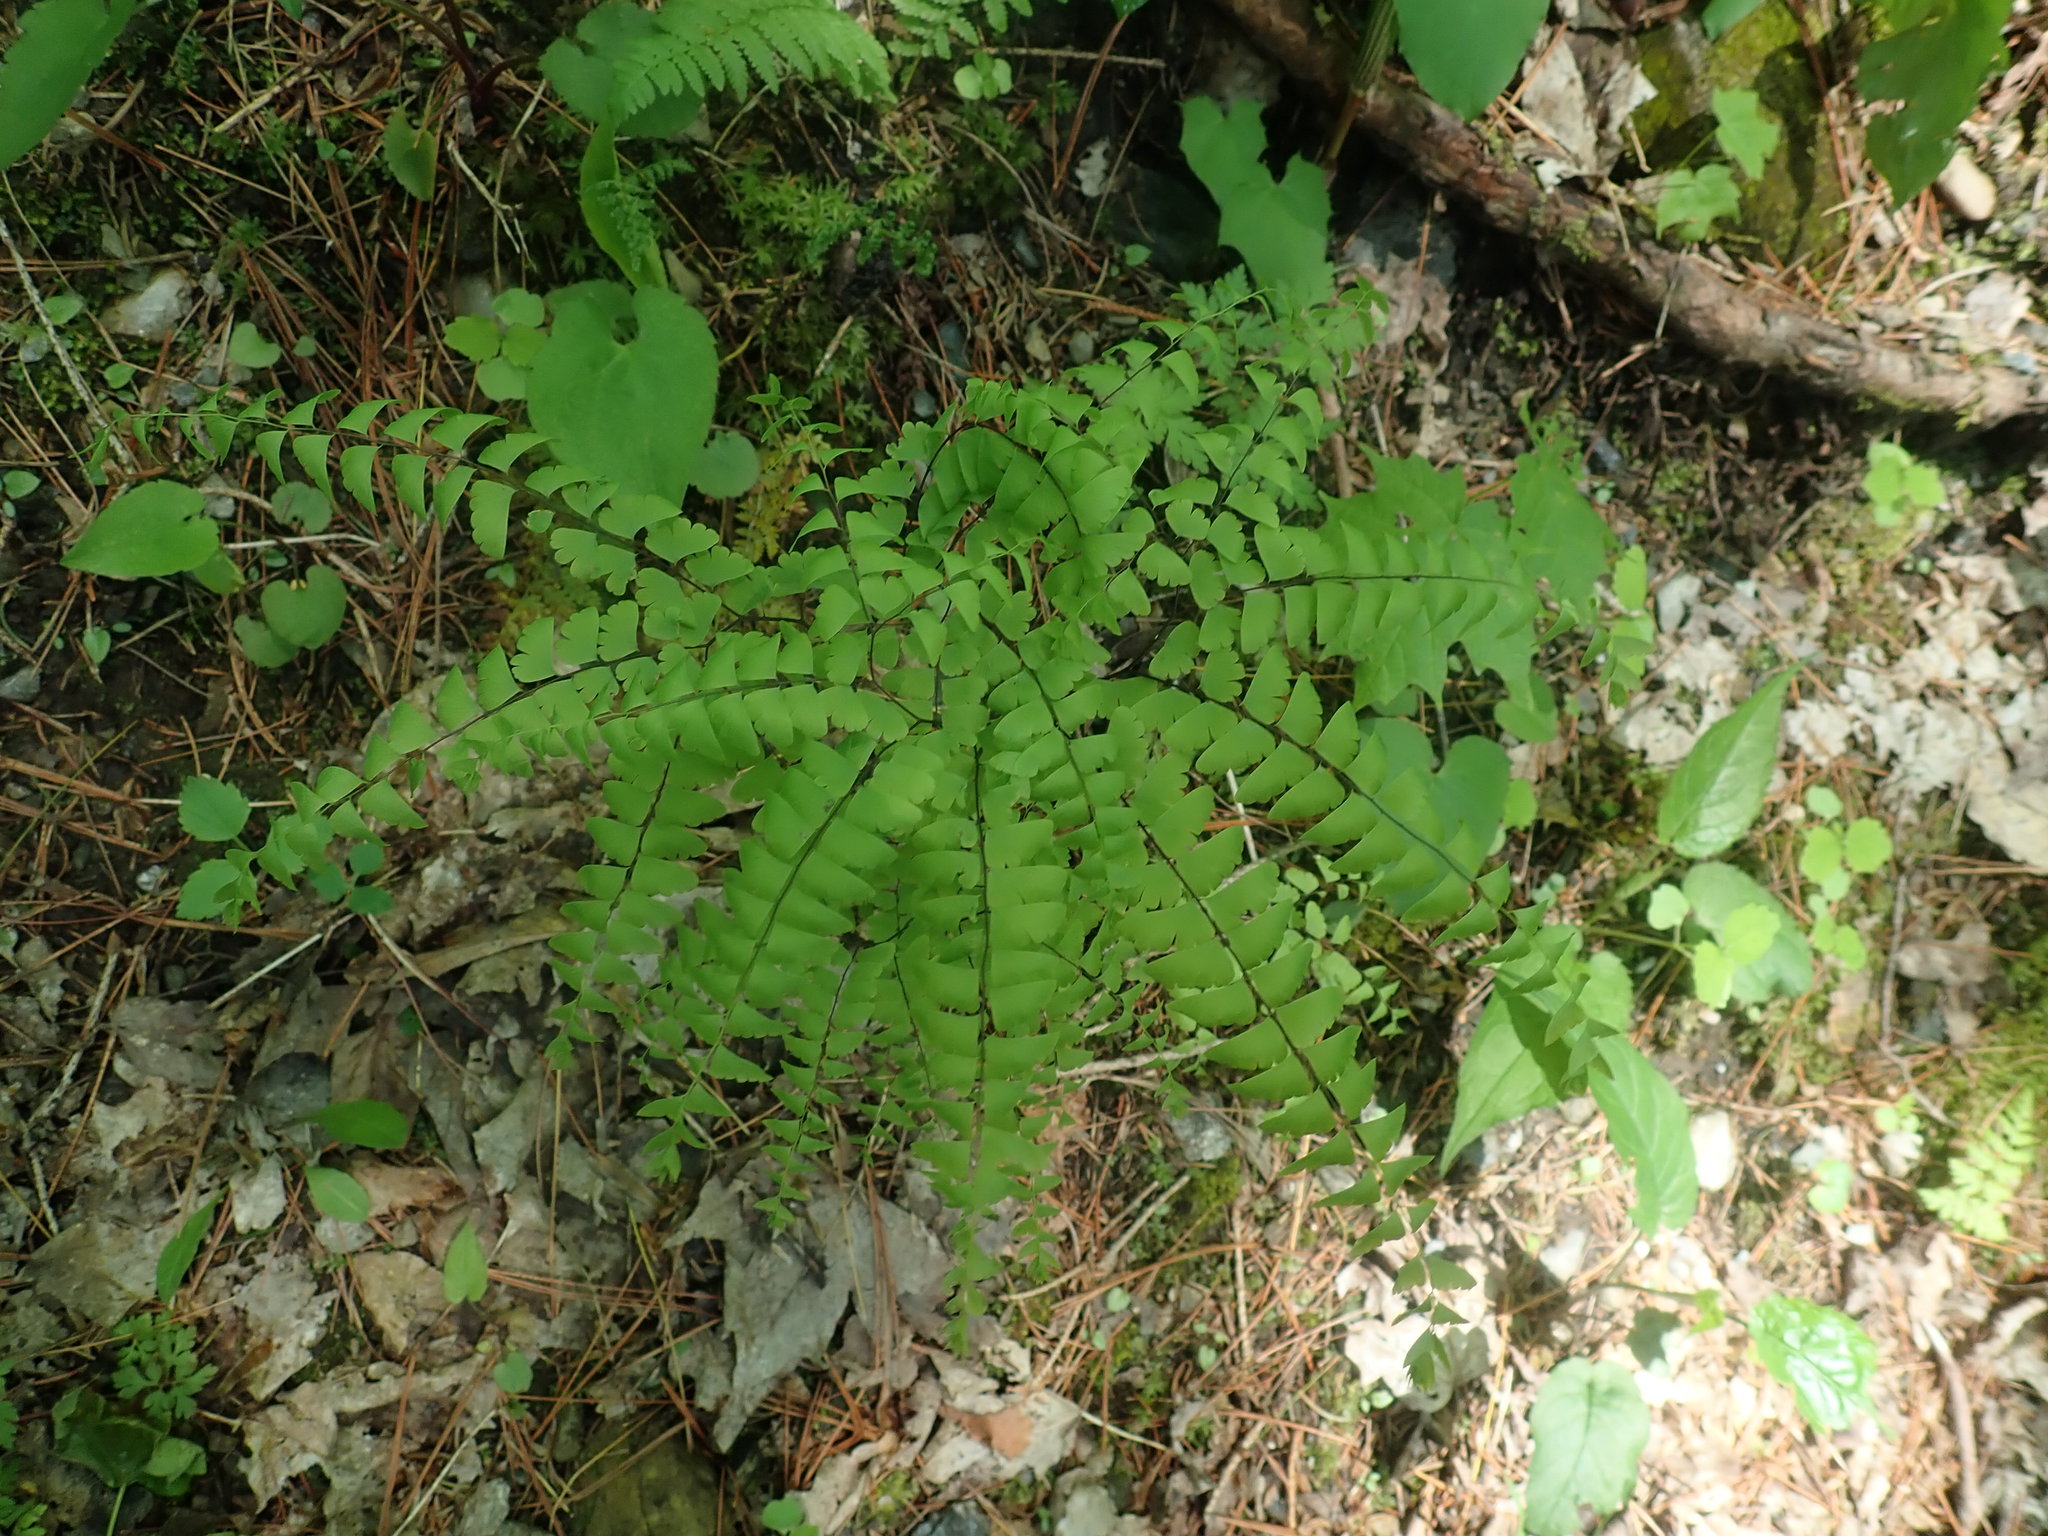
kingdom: Plantae
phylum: Tracheophyta
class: Polypodiopsida
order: Polypodiales
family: Pteridaceae
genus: Adiantum
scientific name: Adiantum pedatum
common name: Five-finger fern
